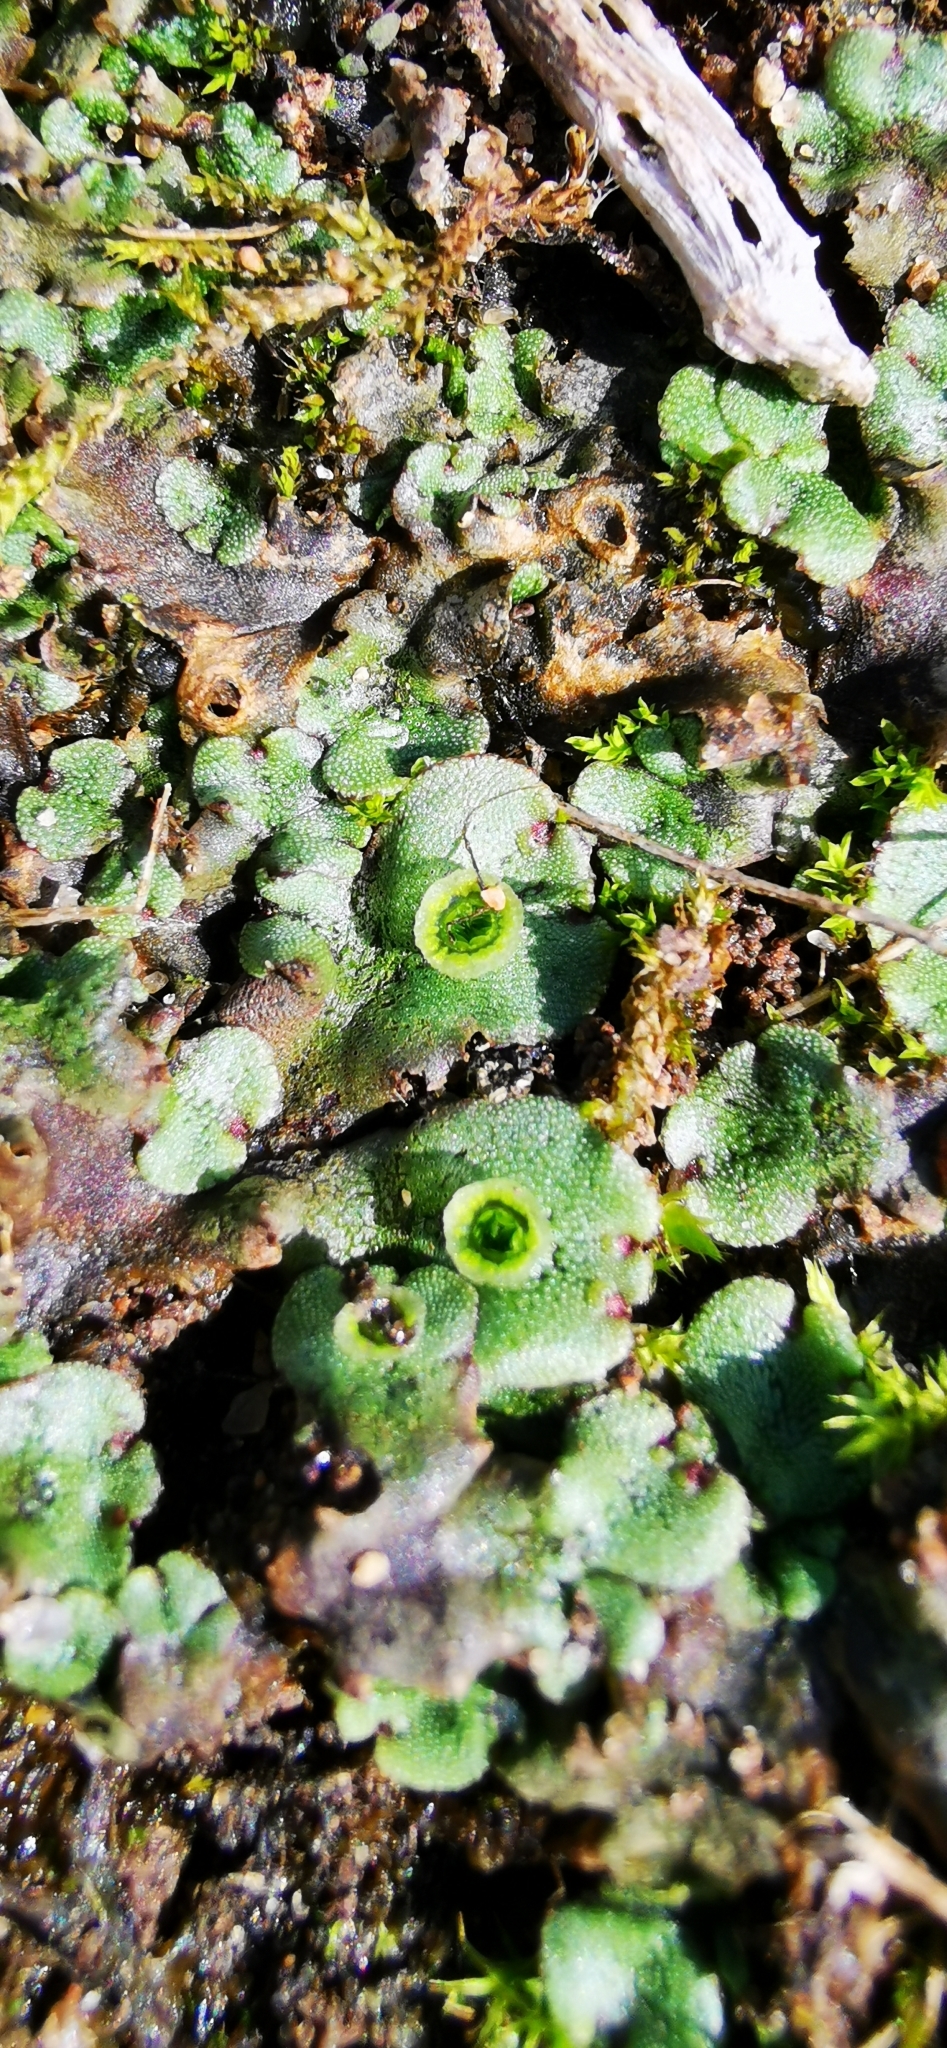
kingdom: Plantae
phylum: Marchantiophyta
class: Marchantiopsida
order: Marchantiales
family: Marchantiaceae
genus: Marchantia
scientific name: Marchantia polymorpha
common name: Common liverwort
